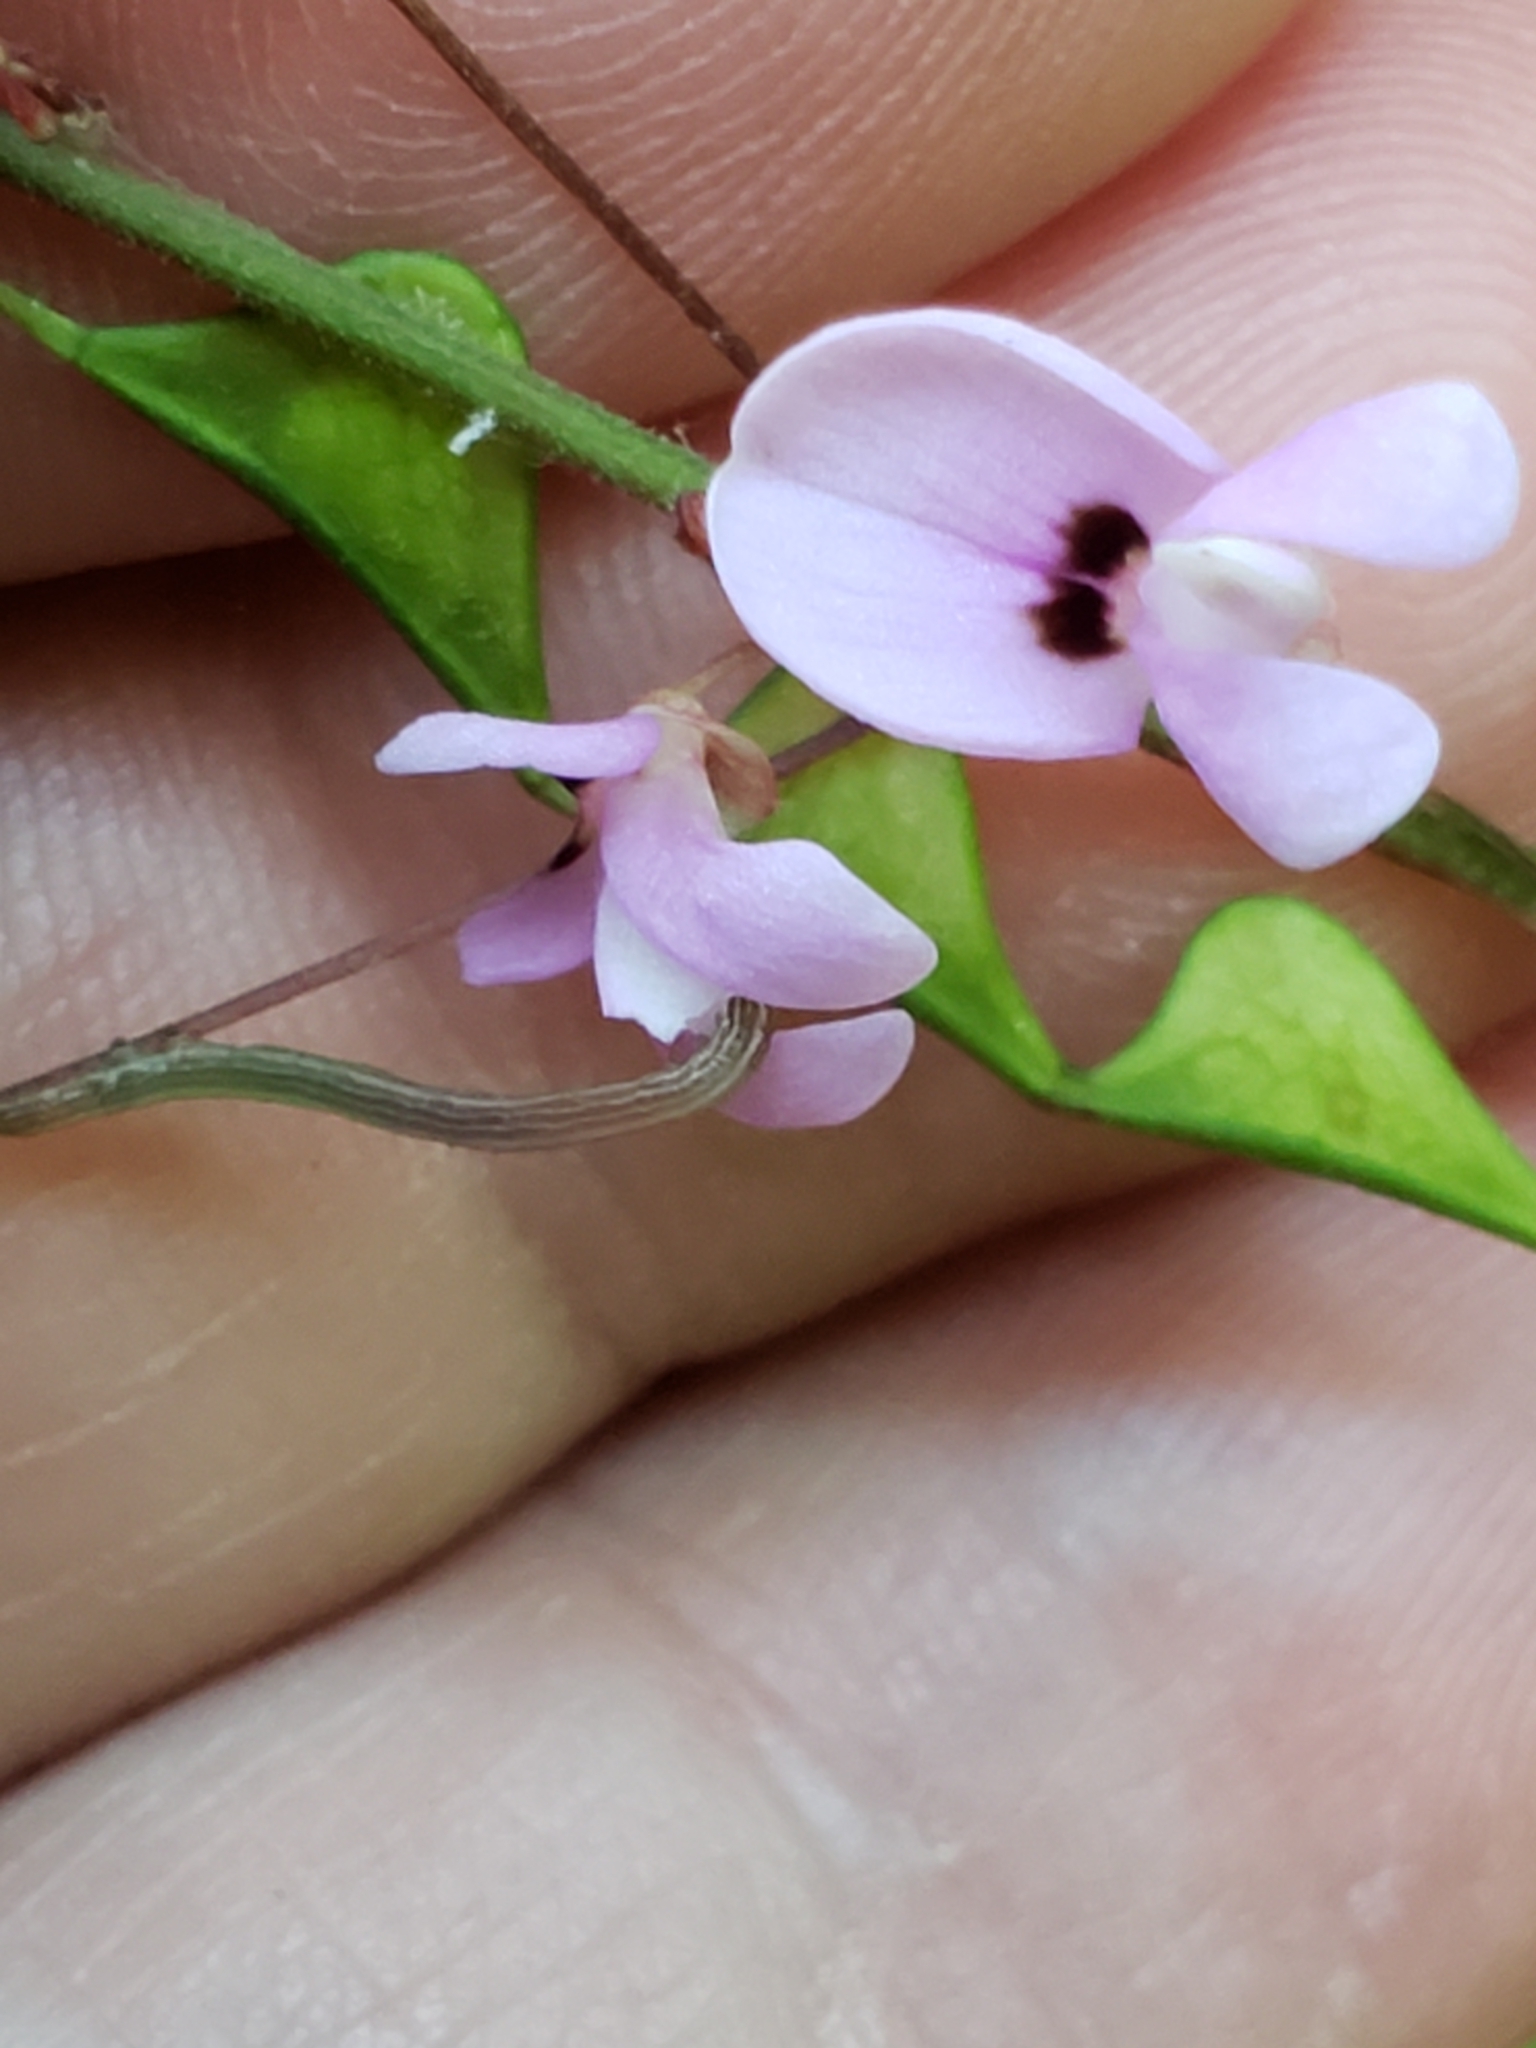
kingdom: Plantae
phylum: Tracheophyta
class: Magnoliopsida
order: Fabales
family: Fabaceae
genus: Hylodesmum
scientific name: Hylodesmum nudiflorum
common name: Bare-stemmed tick-trefoil
